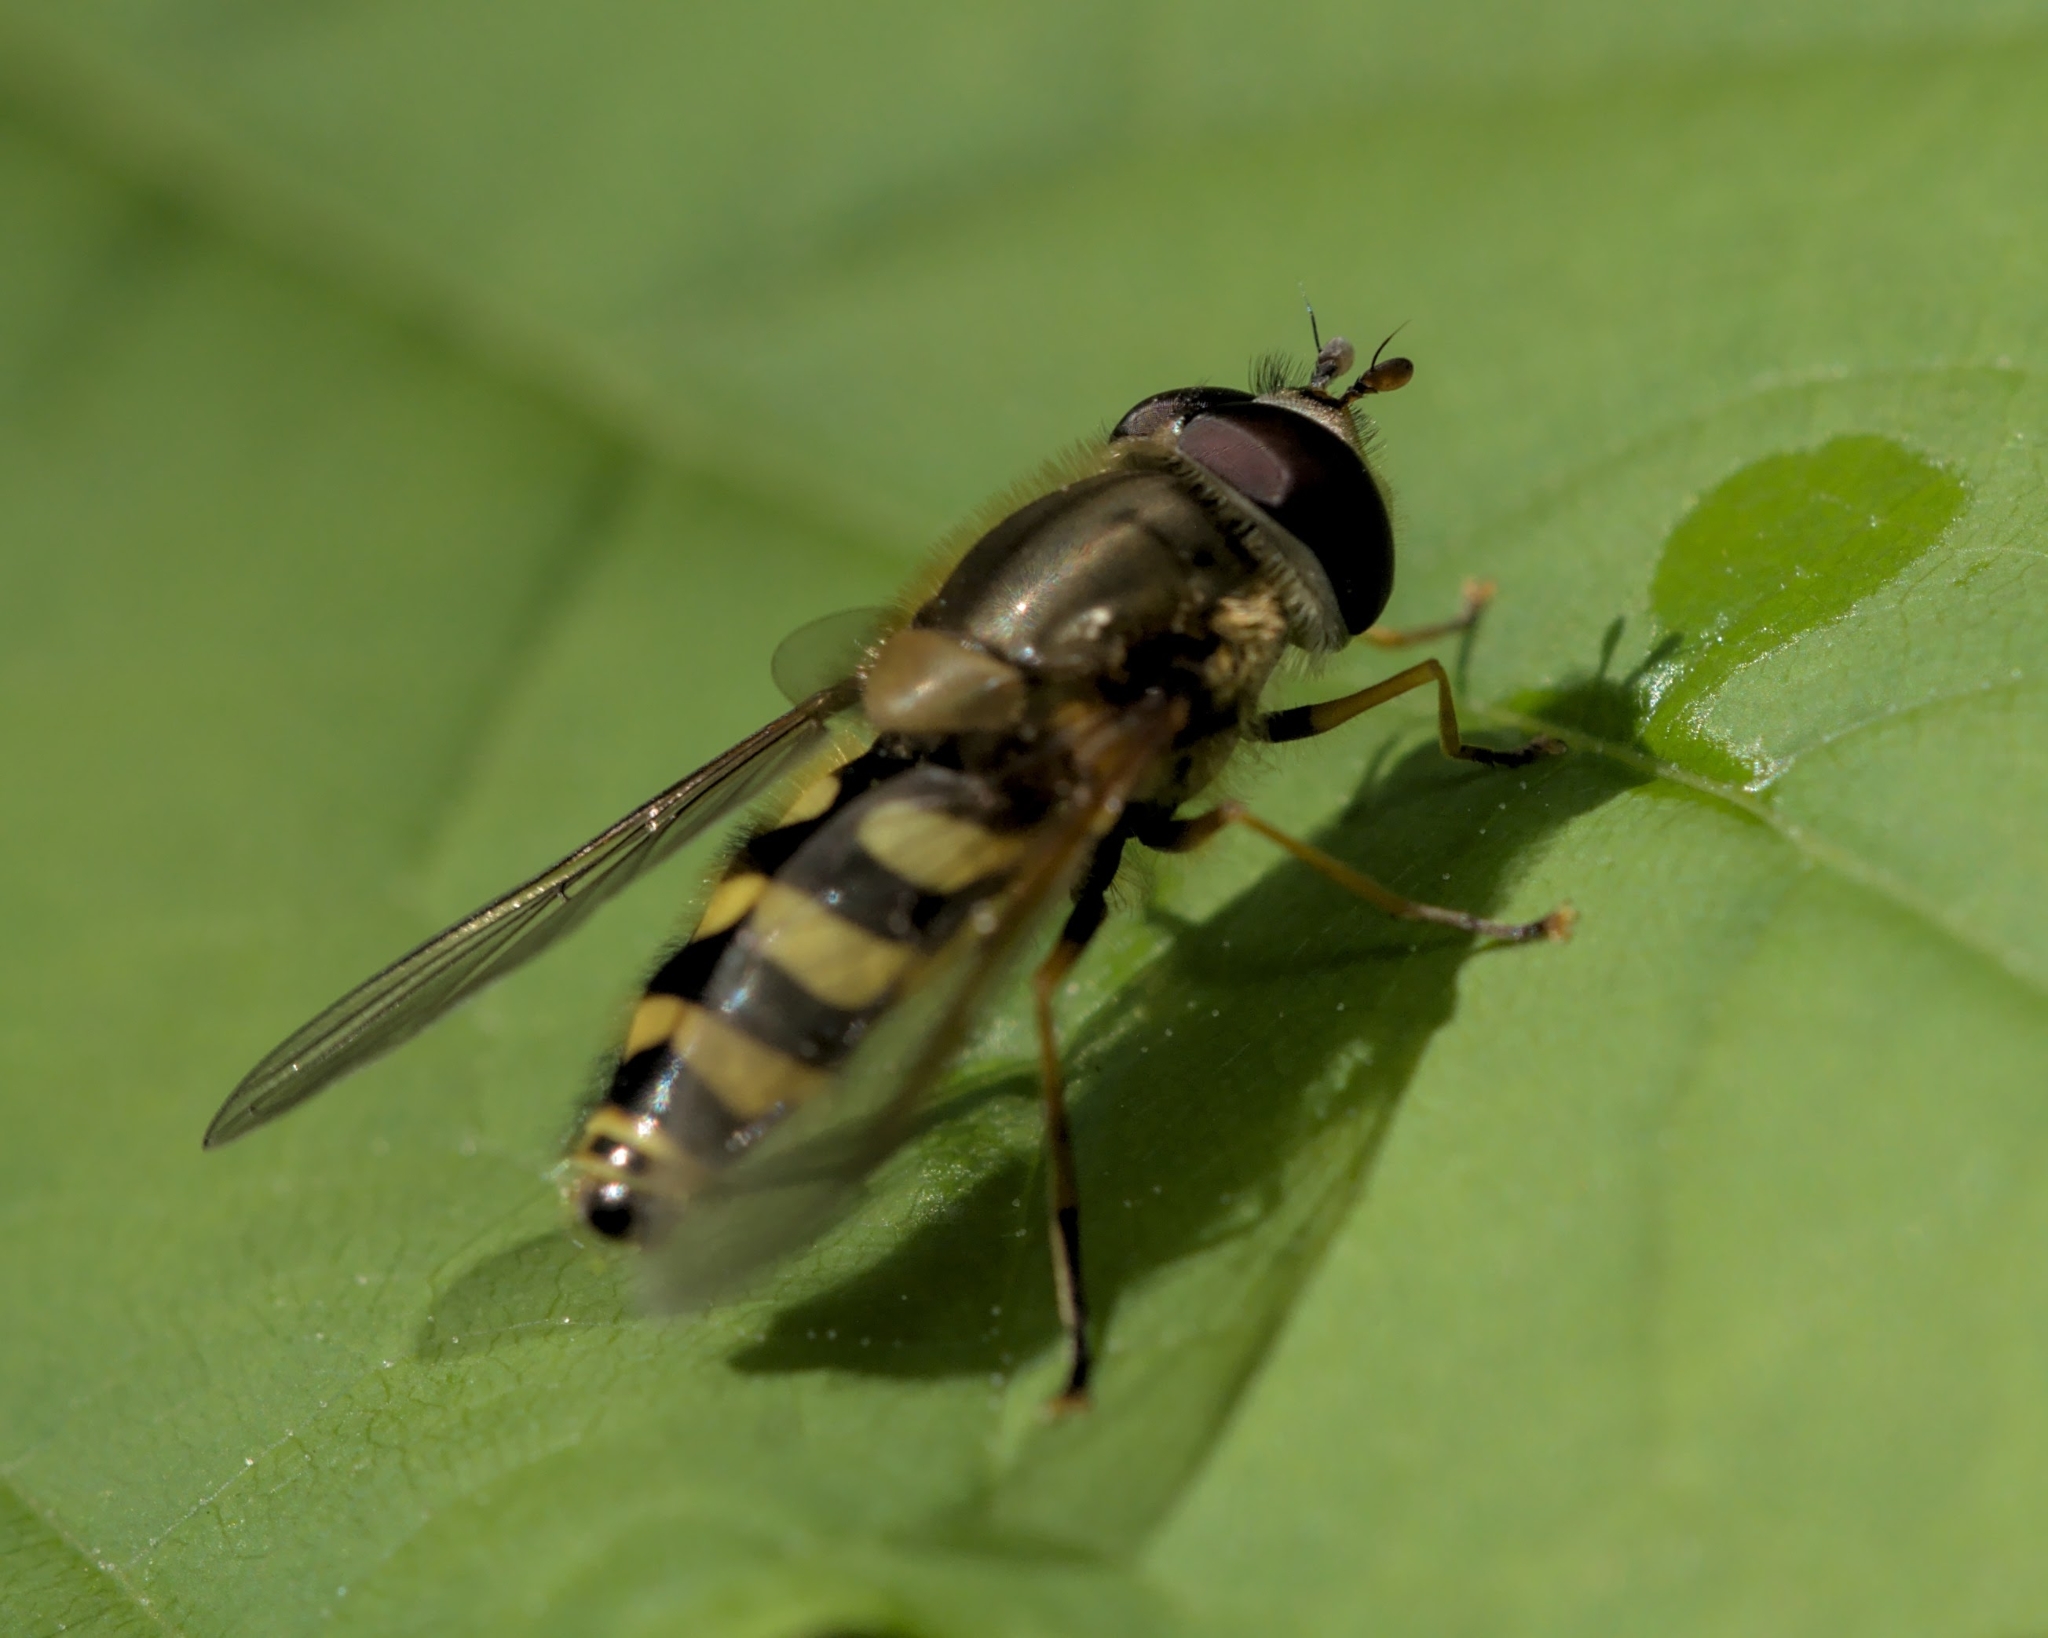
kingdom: Animalia
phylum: Arthropoda
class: Insecta
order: Diptera
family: Syrphidae
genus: Syrphus
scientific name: Syrphus
